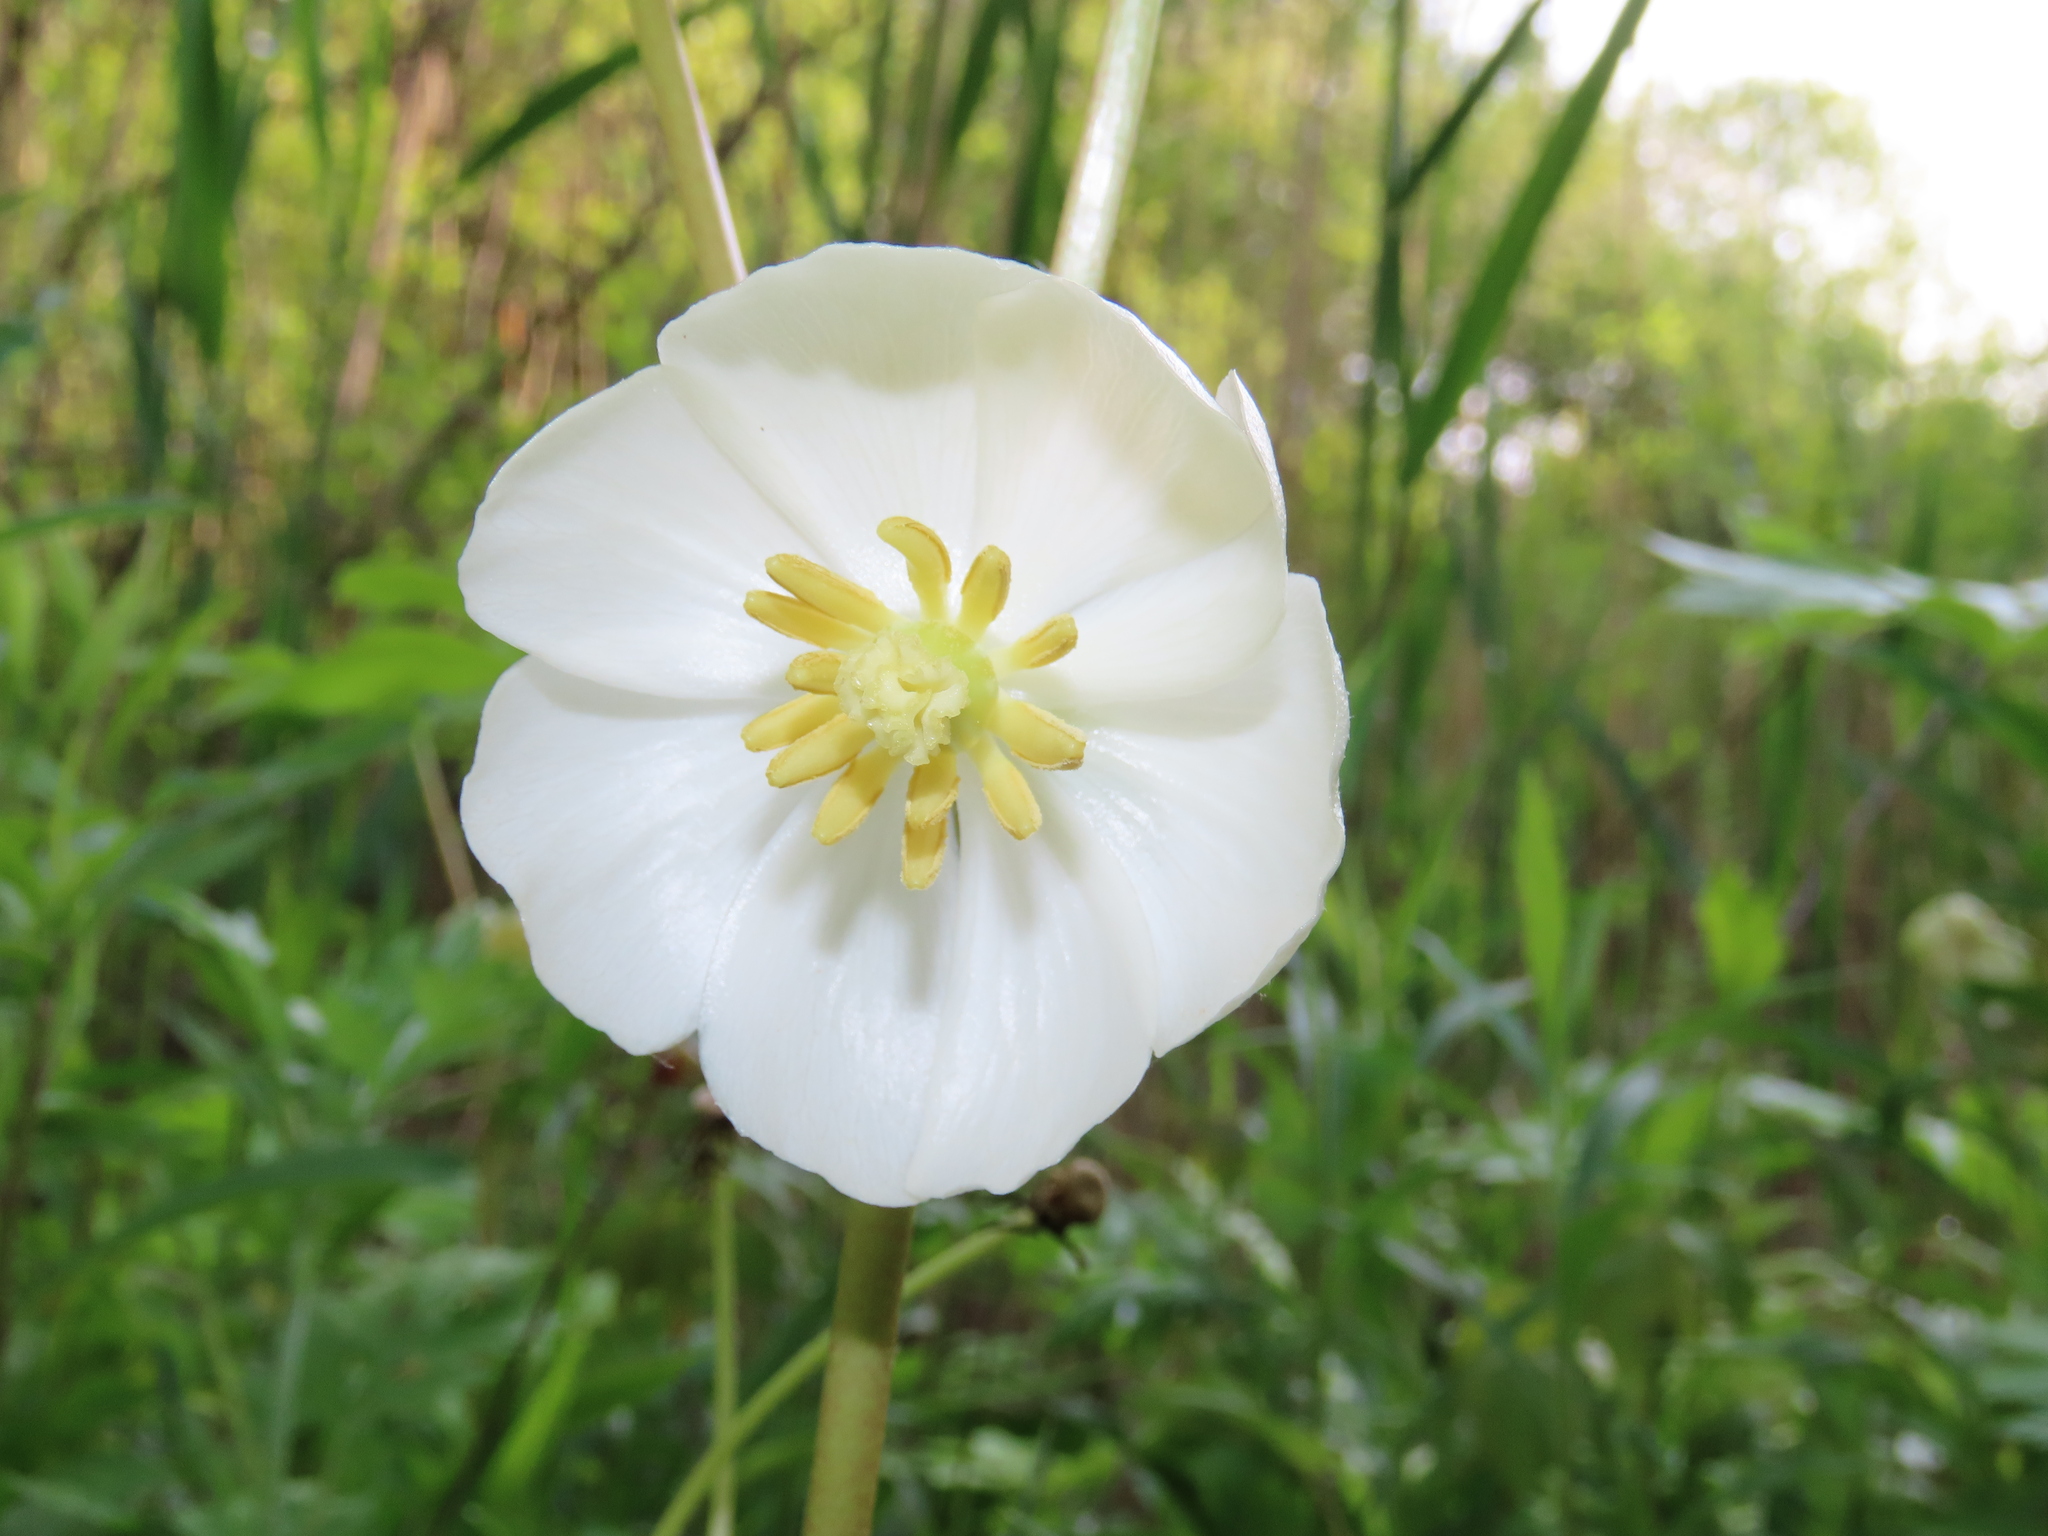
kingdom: Plantae
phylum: Tracheophyta
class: Magnoliopsida
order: Ranunculales
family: Berberidaceae
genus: Podophyllum
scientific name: Podophyllum peltatum
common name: Wild mandrake
